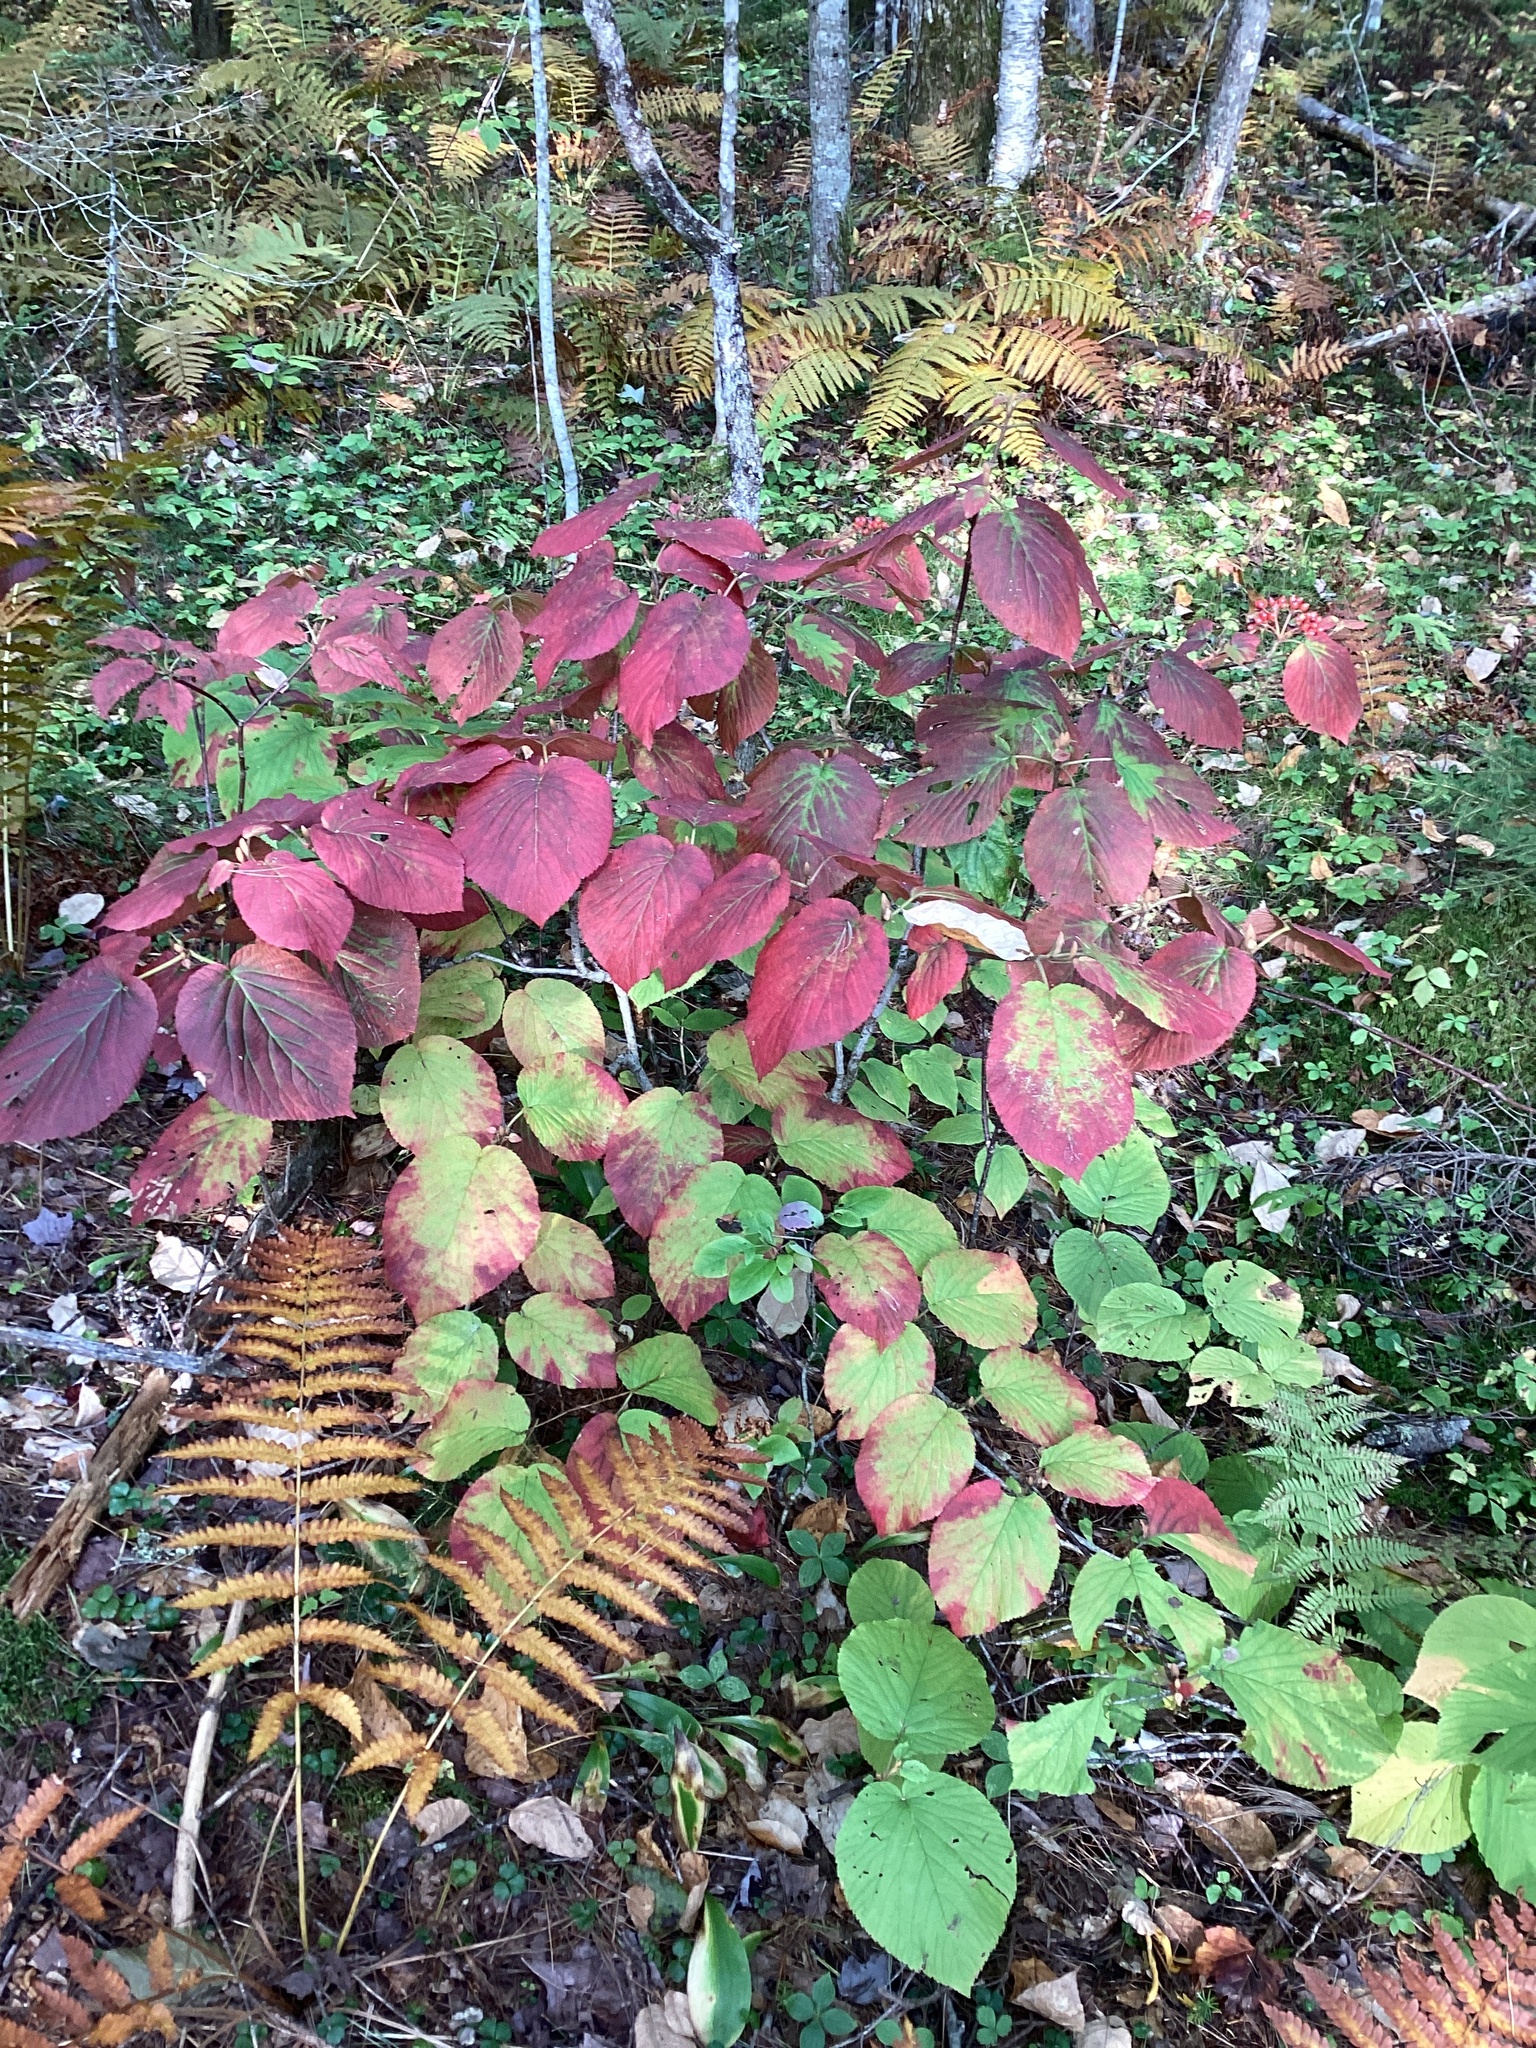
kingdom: Plantae
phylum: Tracheophyta
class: Magnoliopsida
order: Dipsacales
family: Viburnaceae
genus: Viburnum
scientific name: Viburnum lantanoides
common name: Hobblebush
